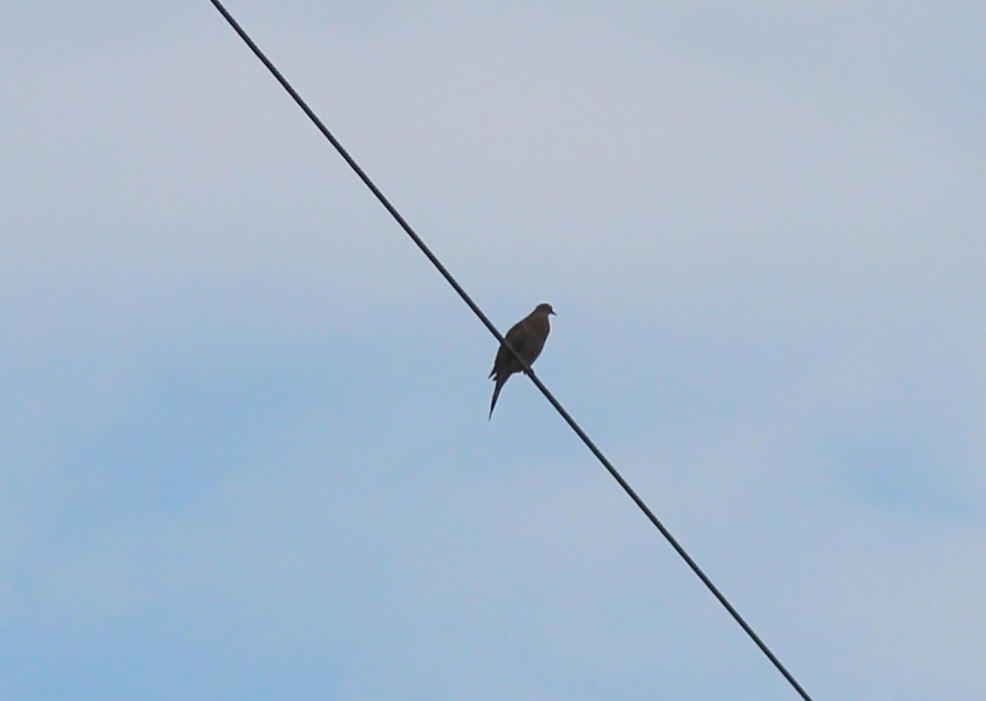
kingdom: Animalia
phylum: Chordata
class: Aves
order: Columbiformes
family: Columbidae
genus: Zenaida
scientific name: Zenaida macroura
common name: Mourning dove
